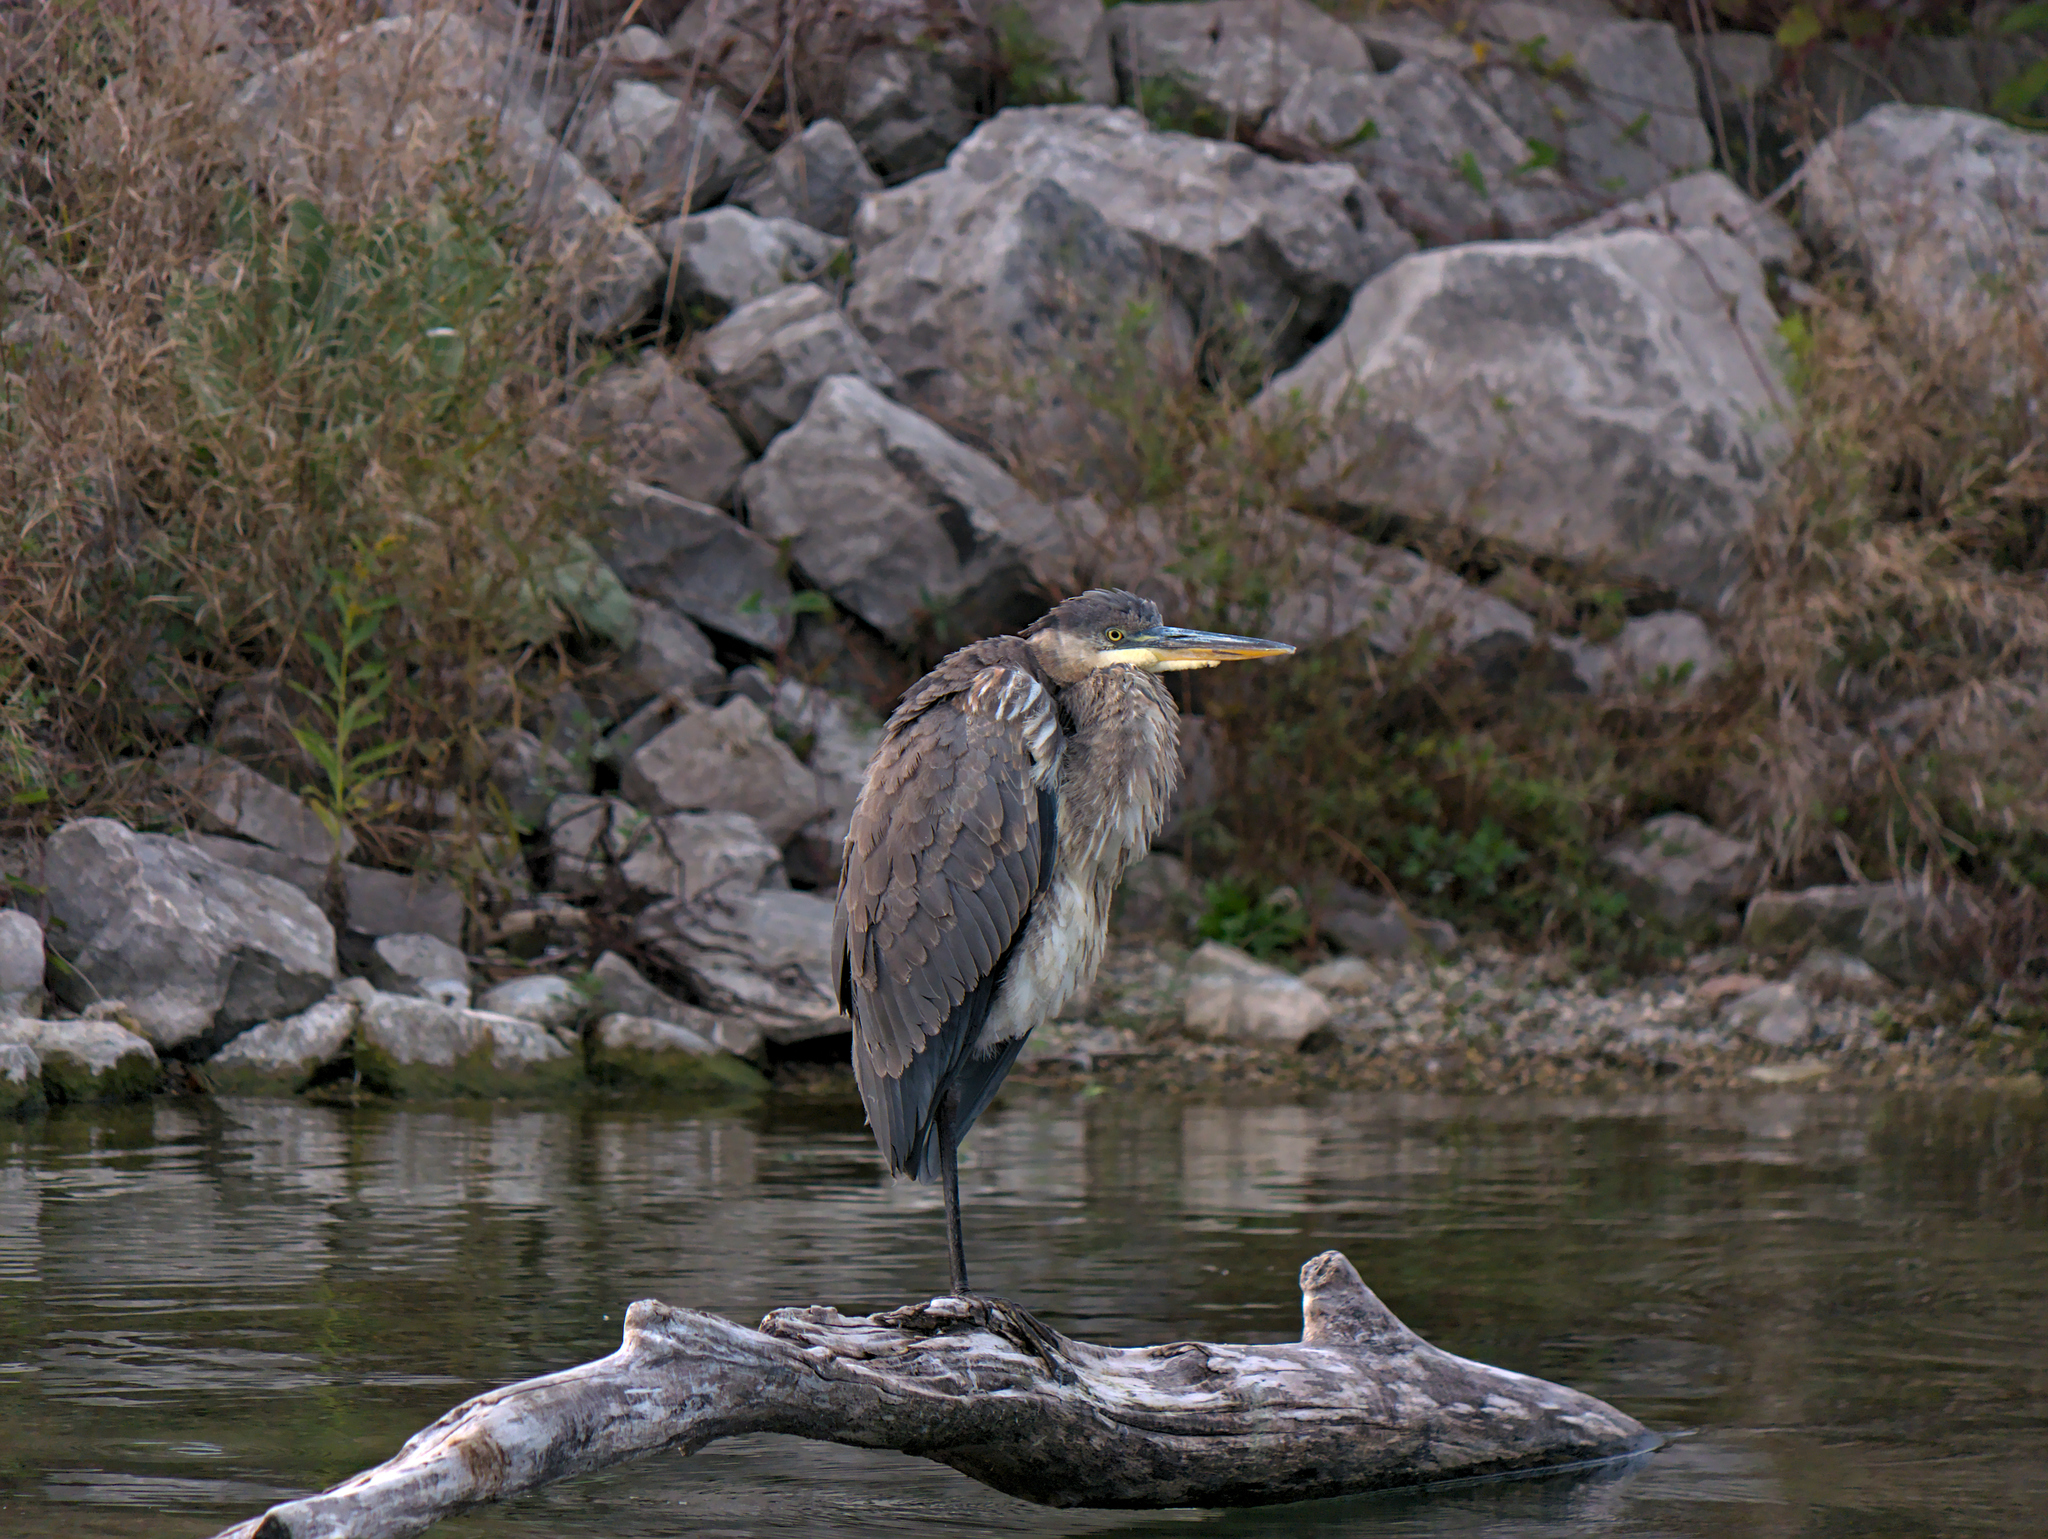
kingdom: Animalia
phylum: Chordata
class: Aves
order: Pelecaniformes
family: Ardeidae
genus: Ardea
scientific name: Ardea herodias
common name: Great blue heron
